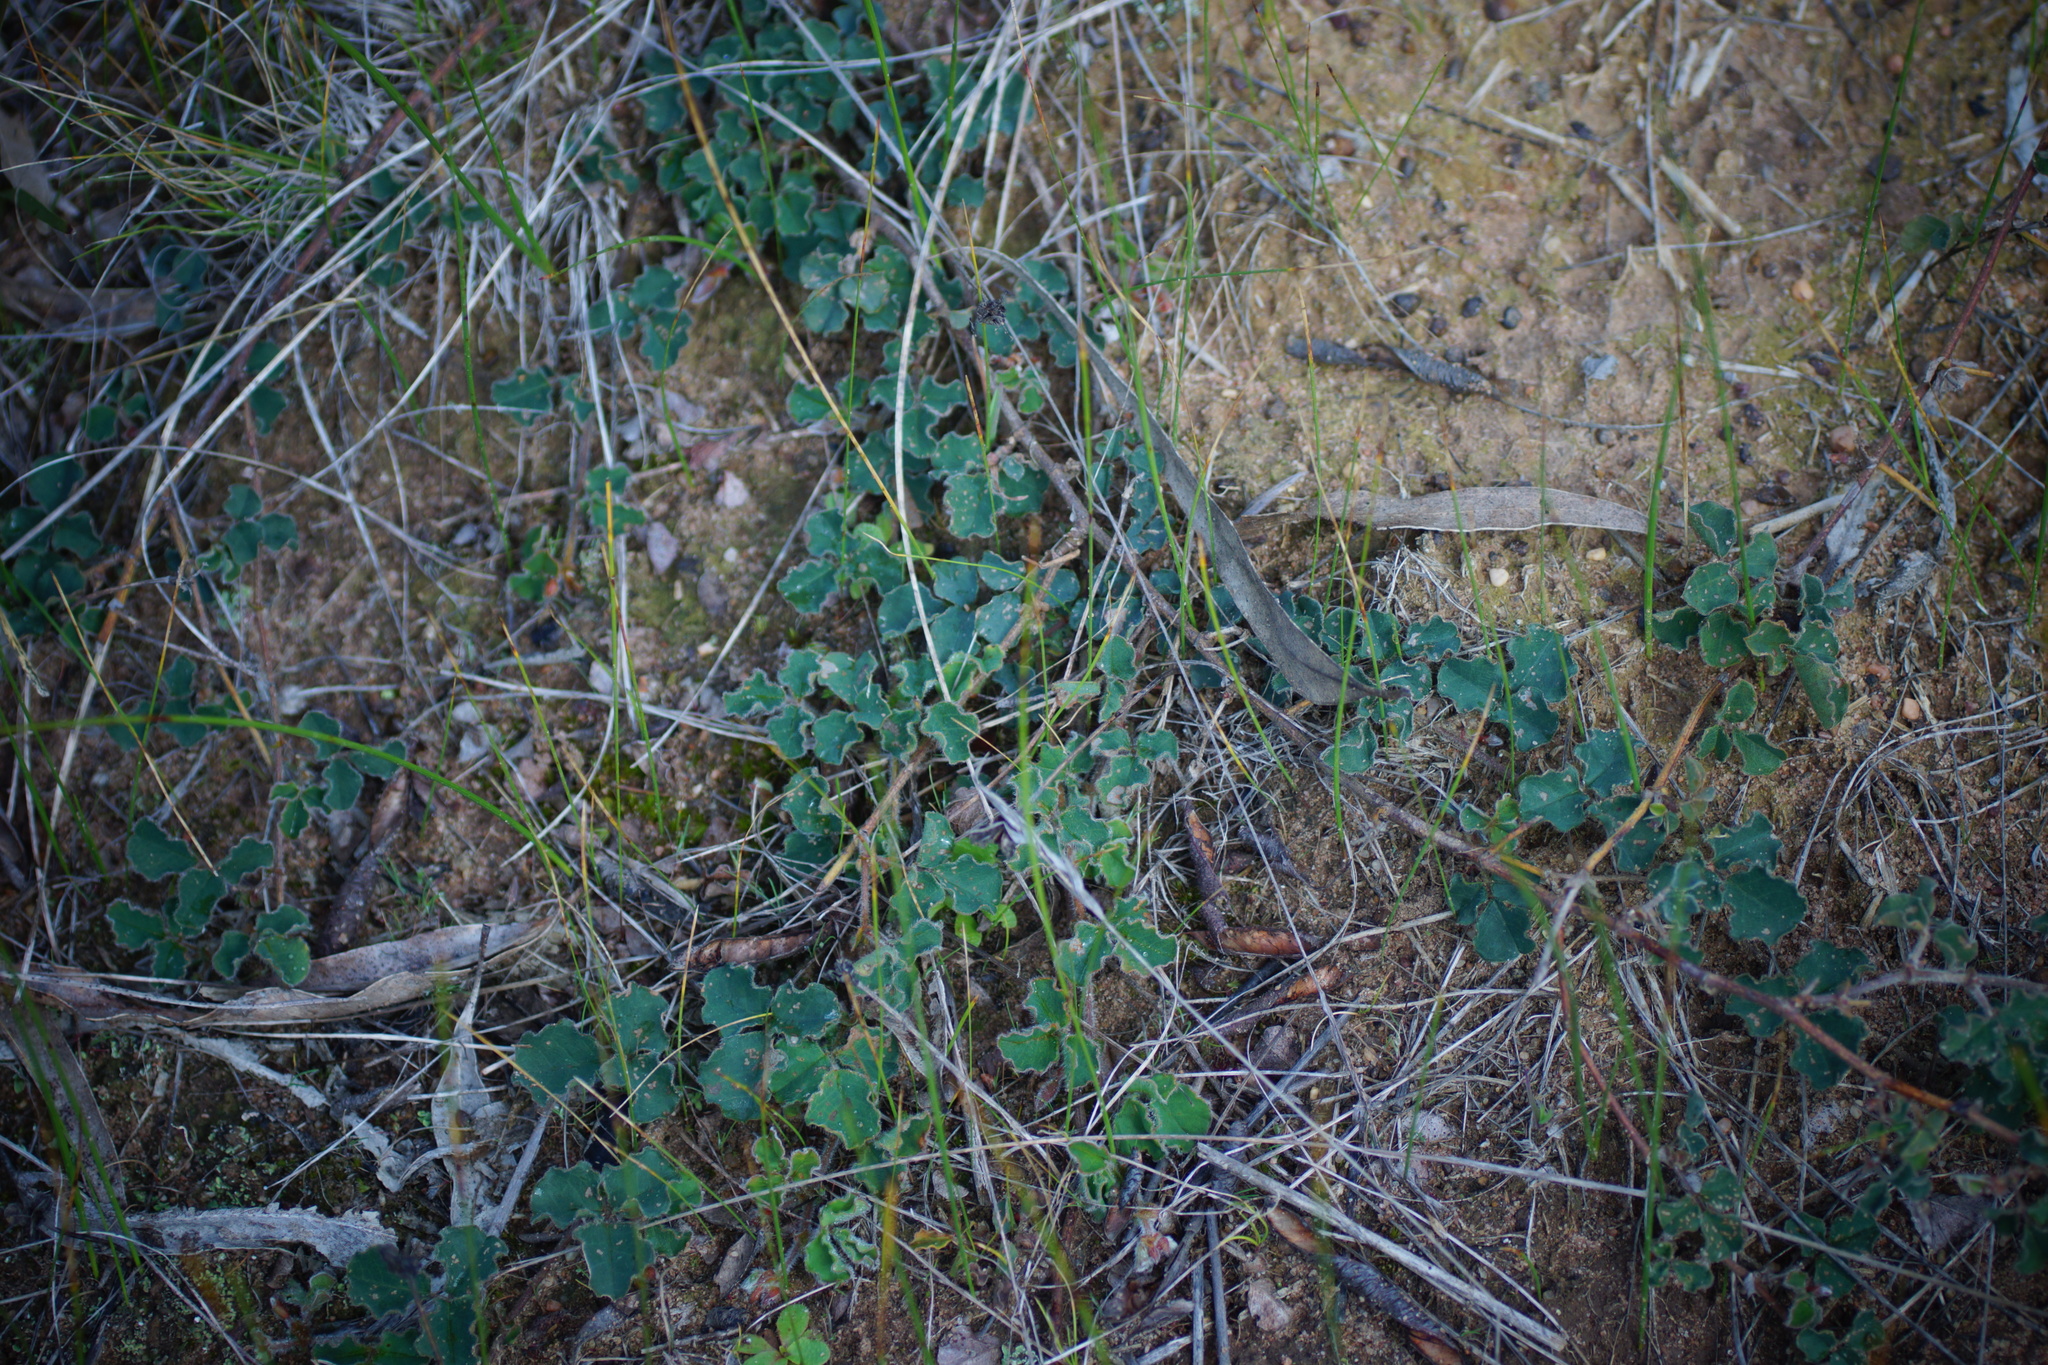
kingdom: Plantae
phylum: Tracheophyta
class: Magnoliopsida
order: Fabales
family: Fabaceae
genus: Kennedia
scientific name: Kennedia prostrata
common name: Running-postman
